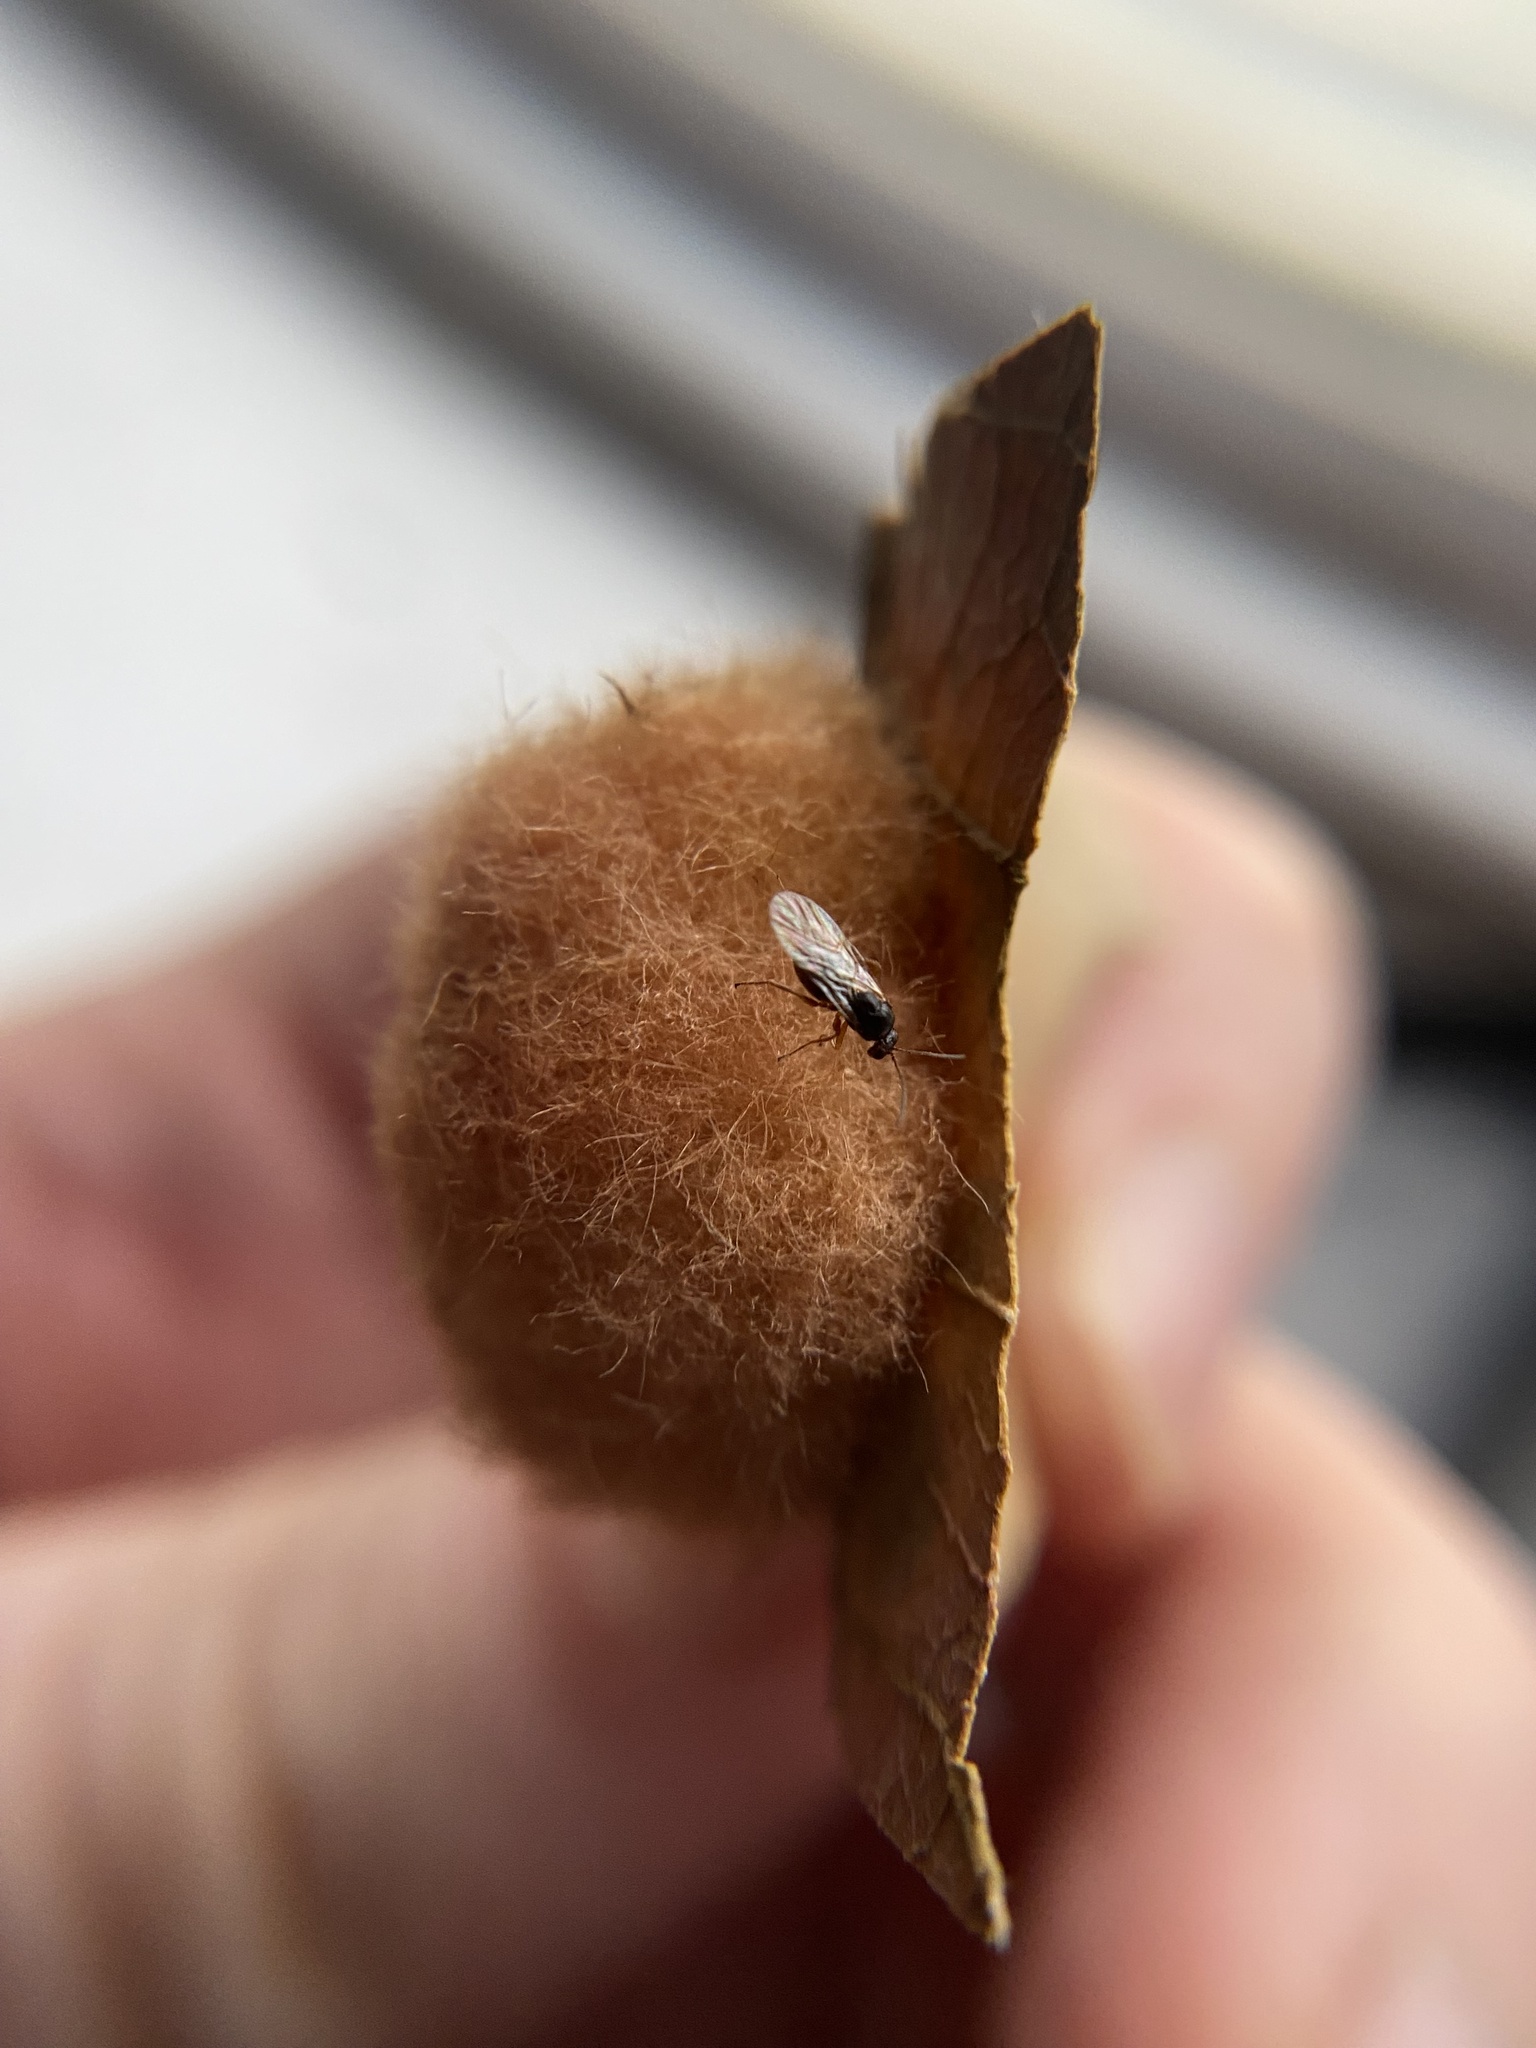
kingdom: Animalia
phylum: Arthropoda
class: Insecta
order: Hymenoptera
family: Cynipidae
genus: Andricus
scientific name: Andricus quercusflocci
